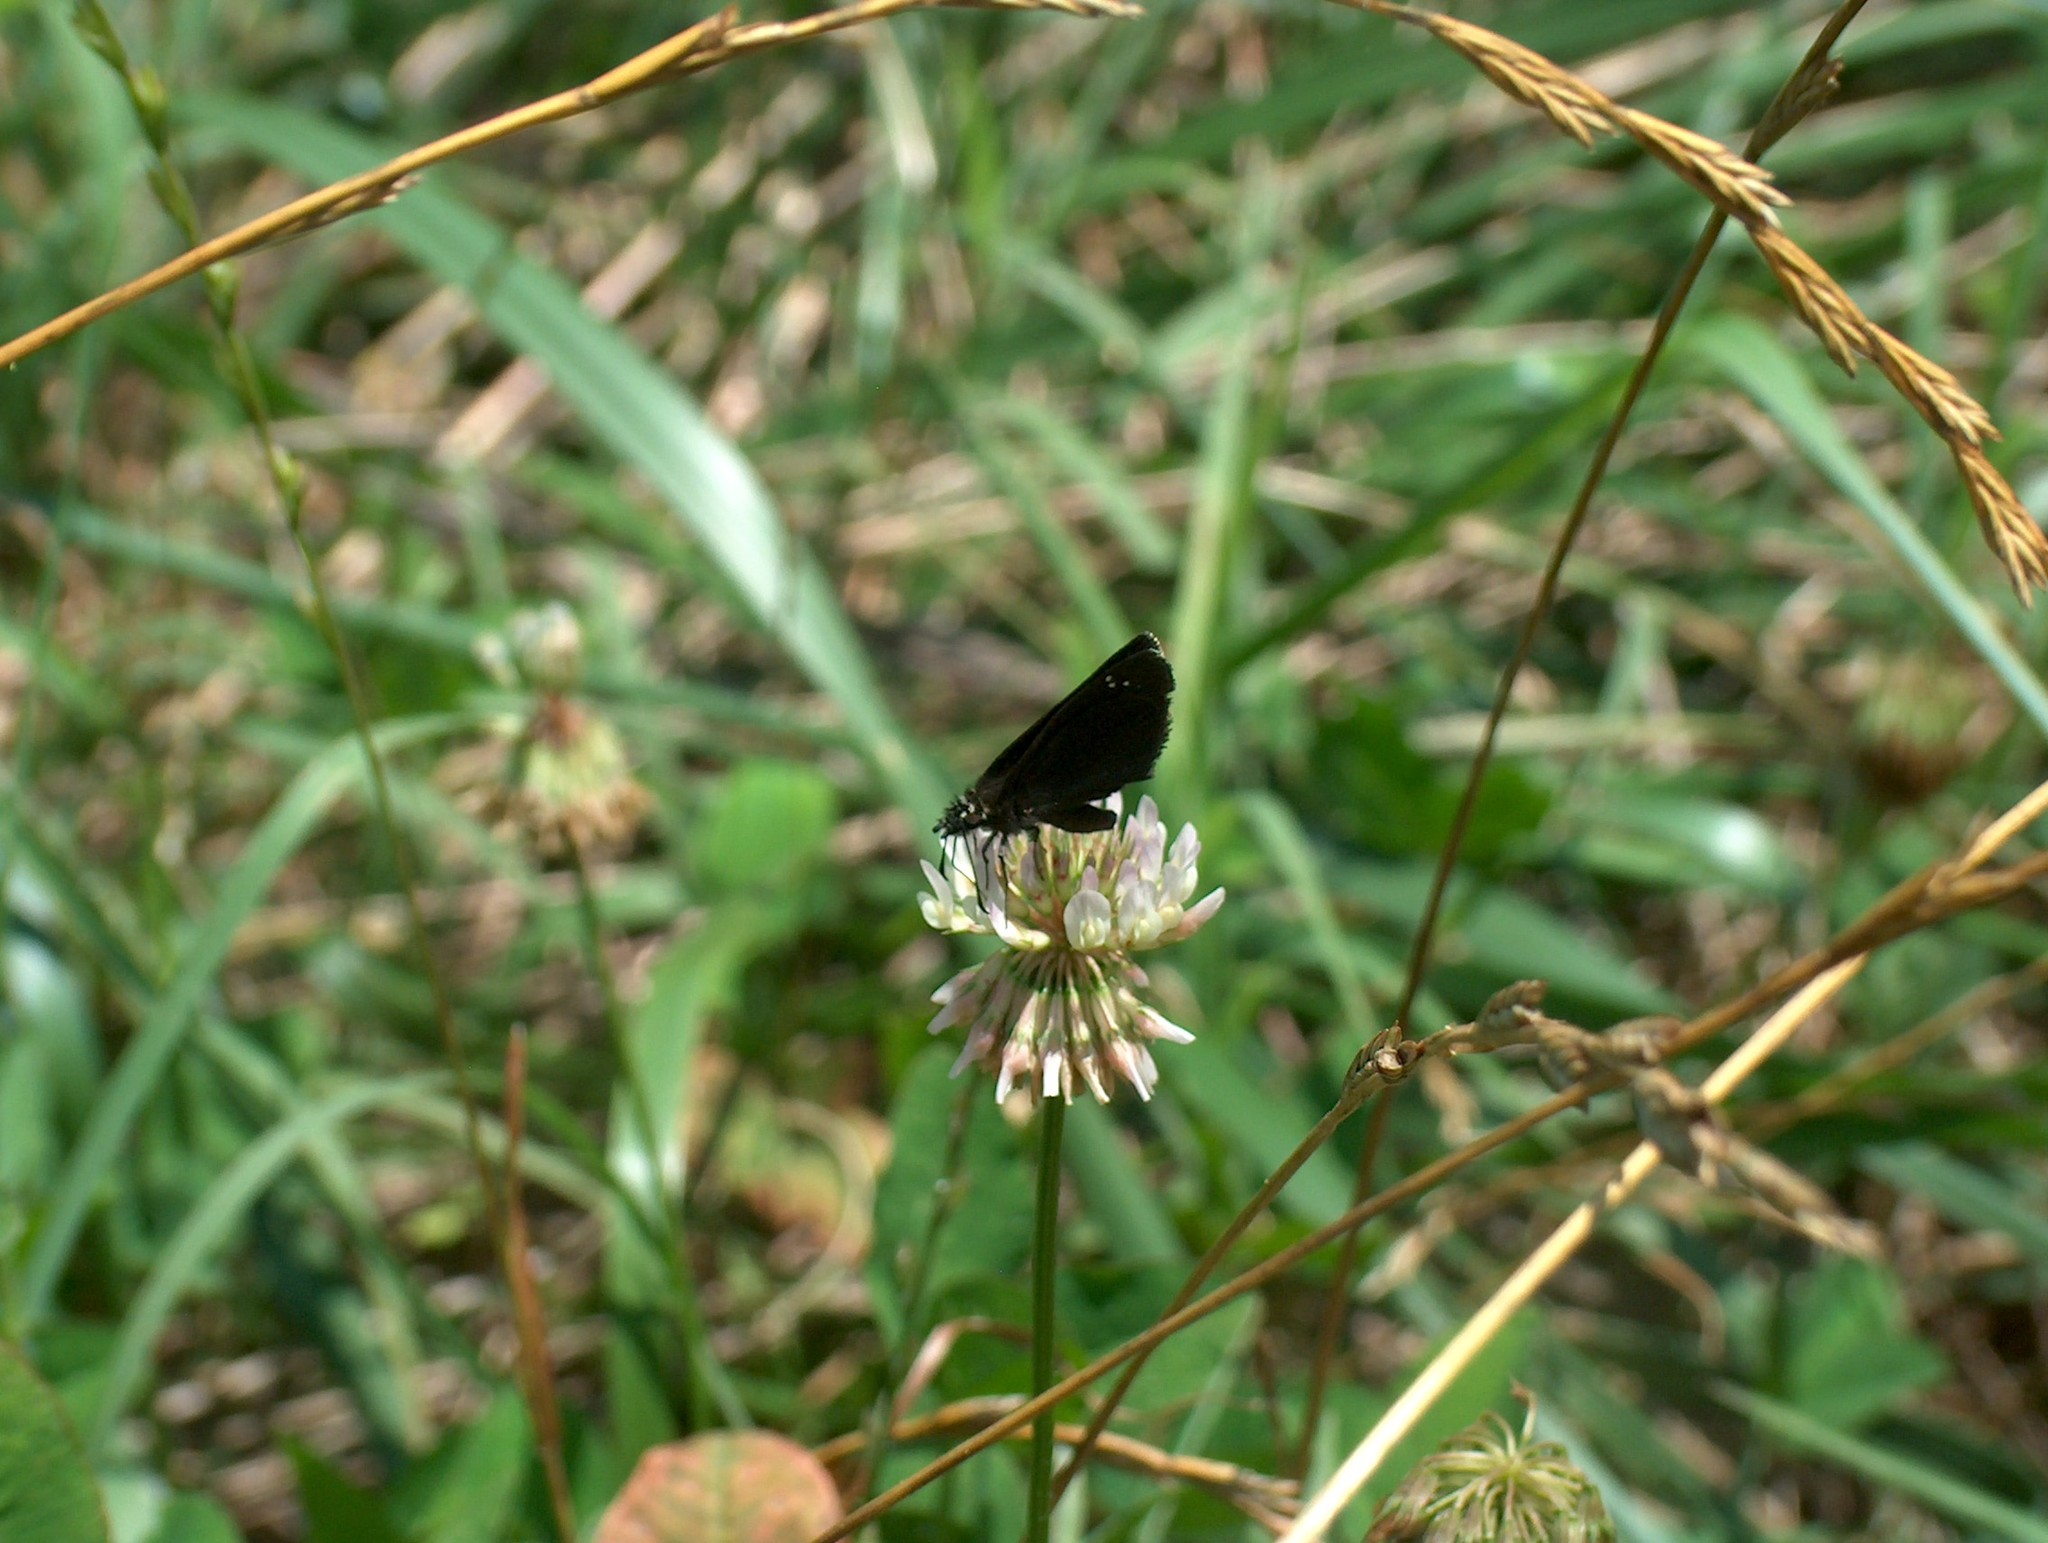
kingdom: Animalia
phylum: Arthropoda
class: Insecta
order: Lepidoptera
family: Hesperiidae
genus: Pholisora
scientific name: Pholisora catullus
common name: Common sootywing
